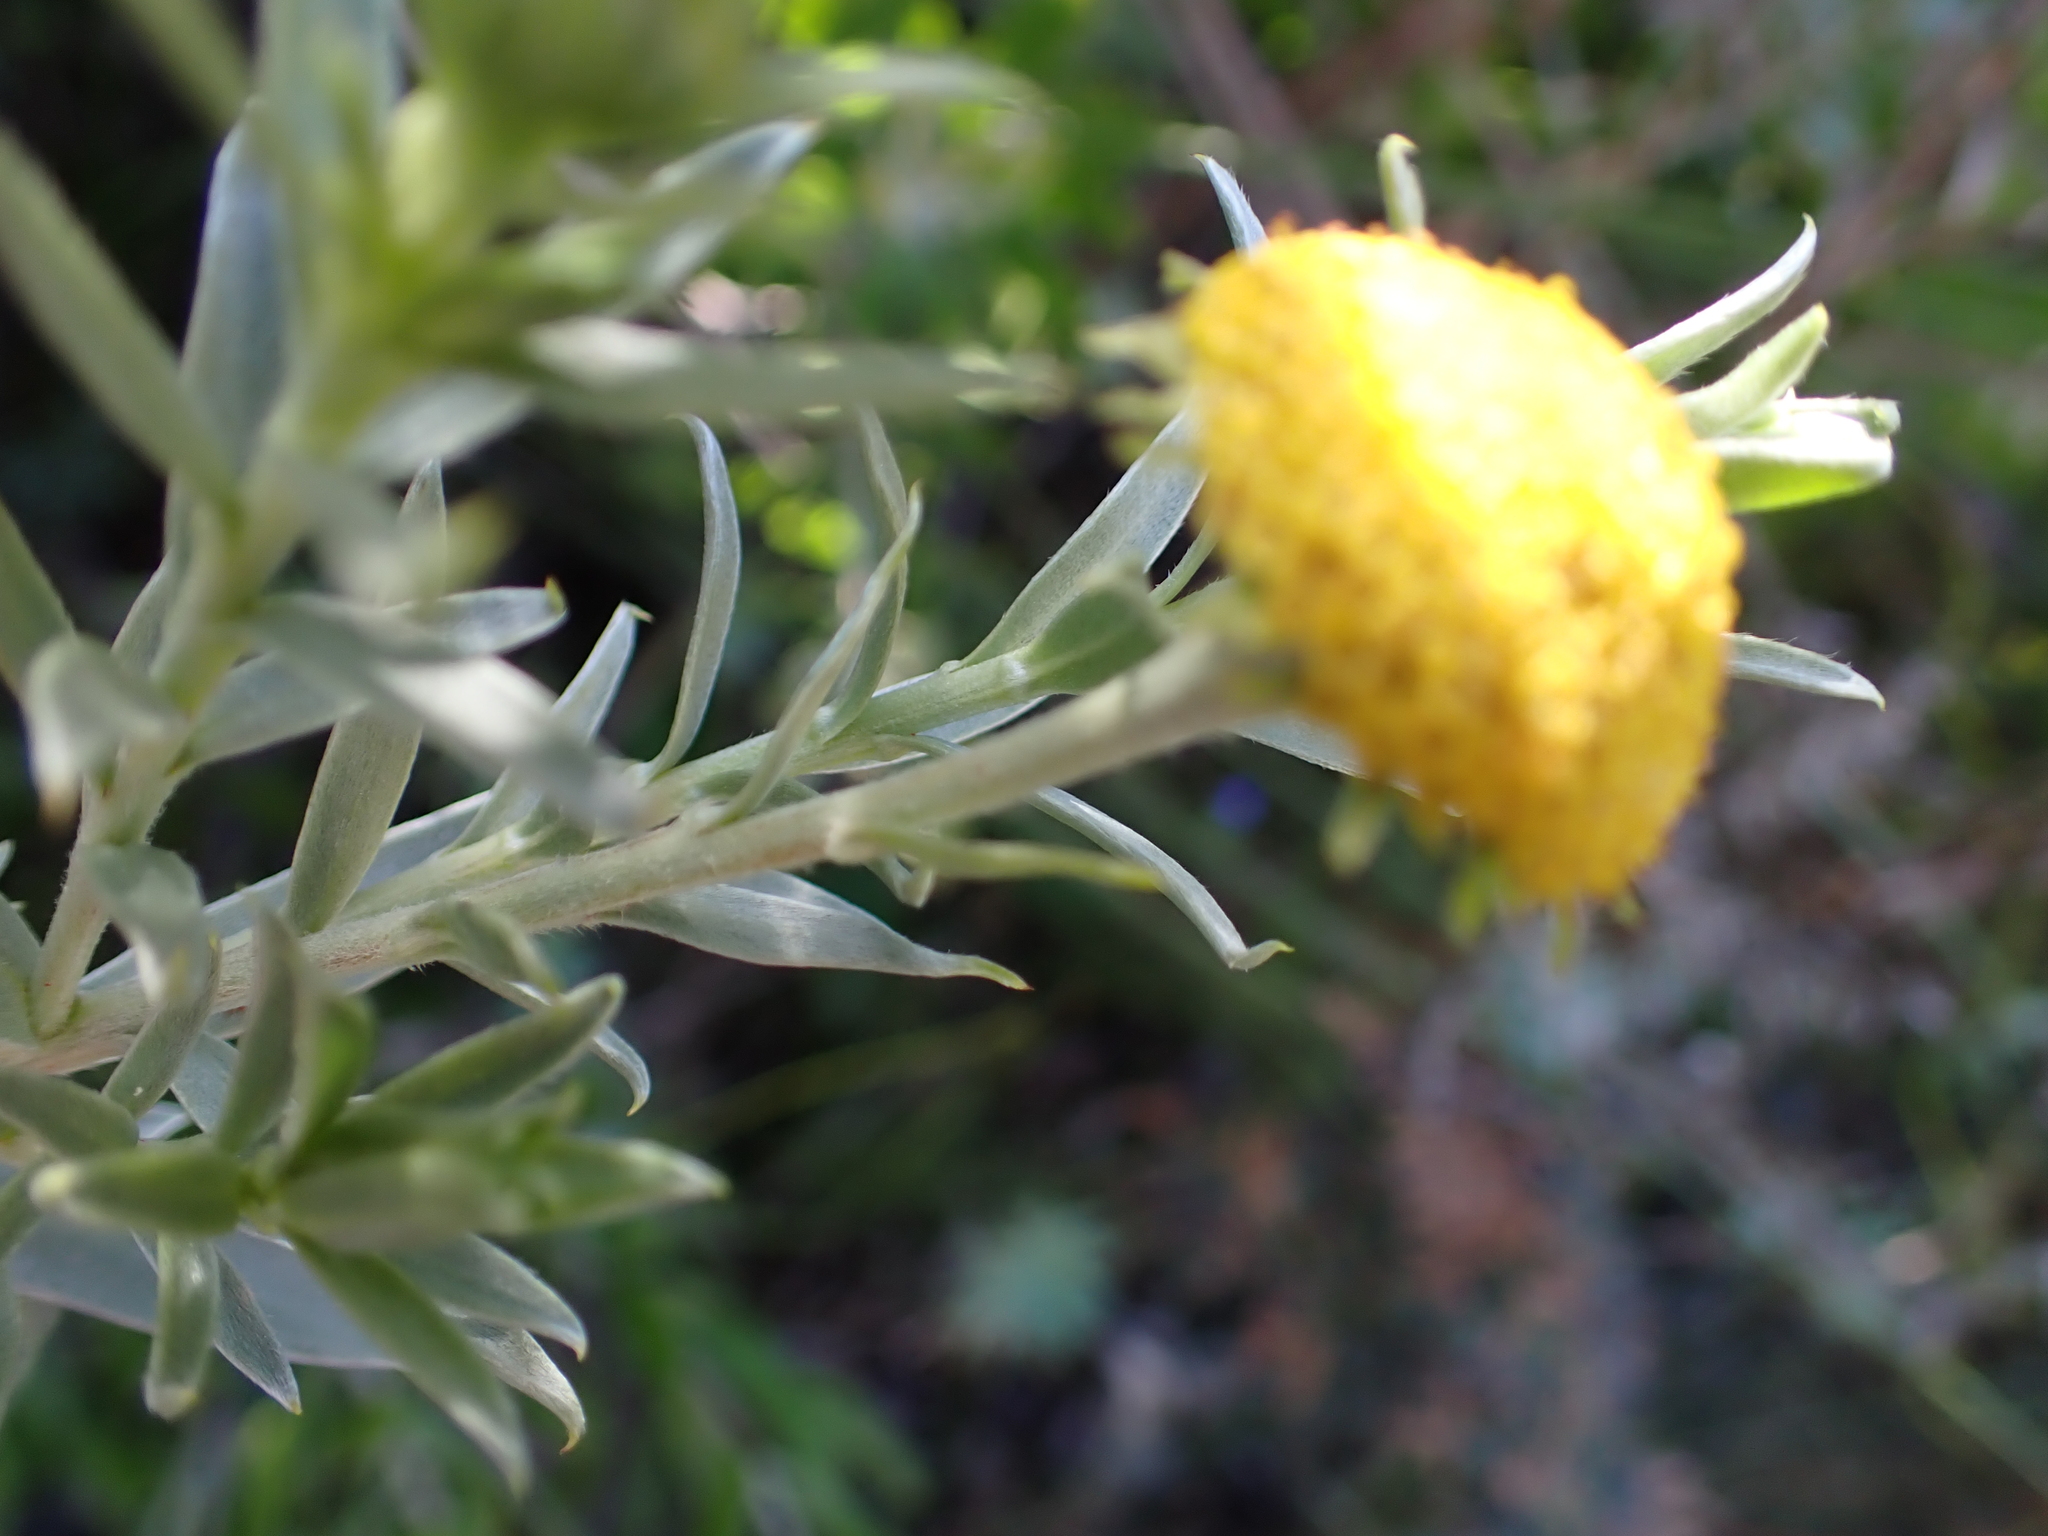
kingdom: Plantae
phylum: Tracheophyta
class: Magnoliopsida
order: Asterales
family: Asteraceae
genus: Schistostephium
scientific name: Schistostephium umbellatum
